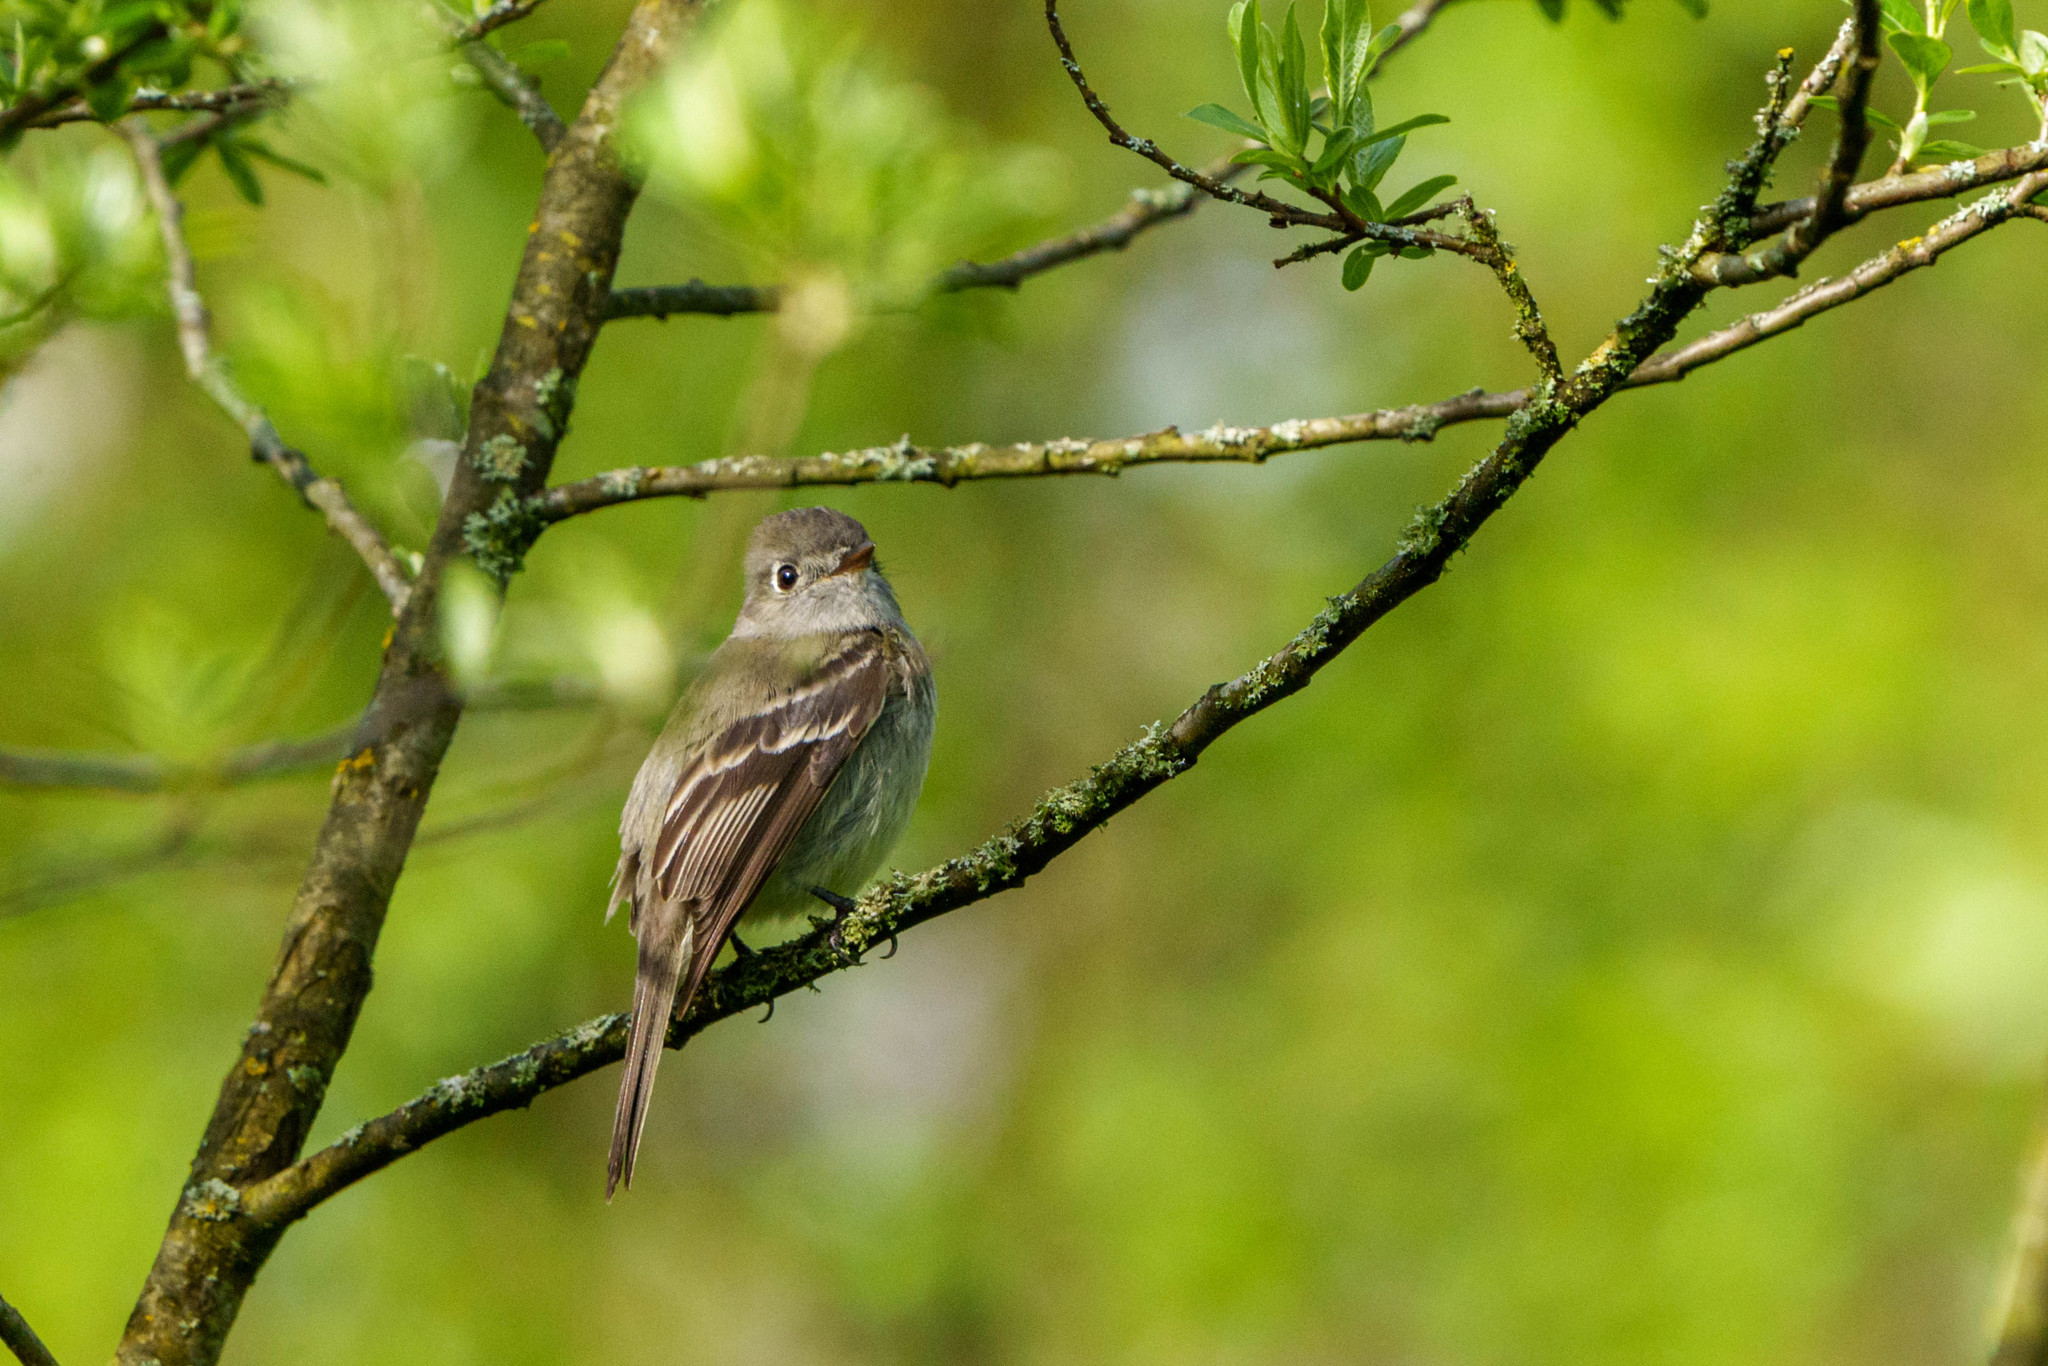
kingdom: Animalia
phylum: Chordata
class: Aves
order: Passeriformes
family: Tyrannidae
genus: Empidonax
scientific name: Empidonax hammondii
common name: Hammond's flycatcher
